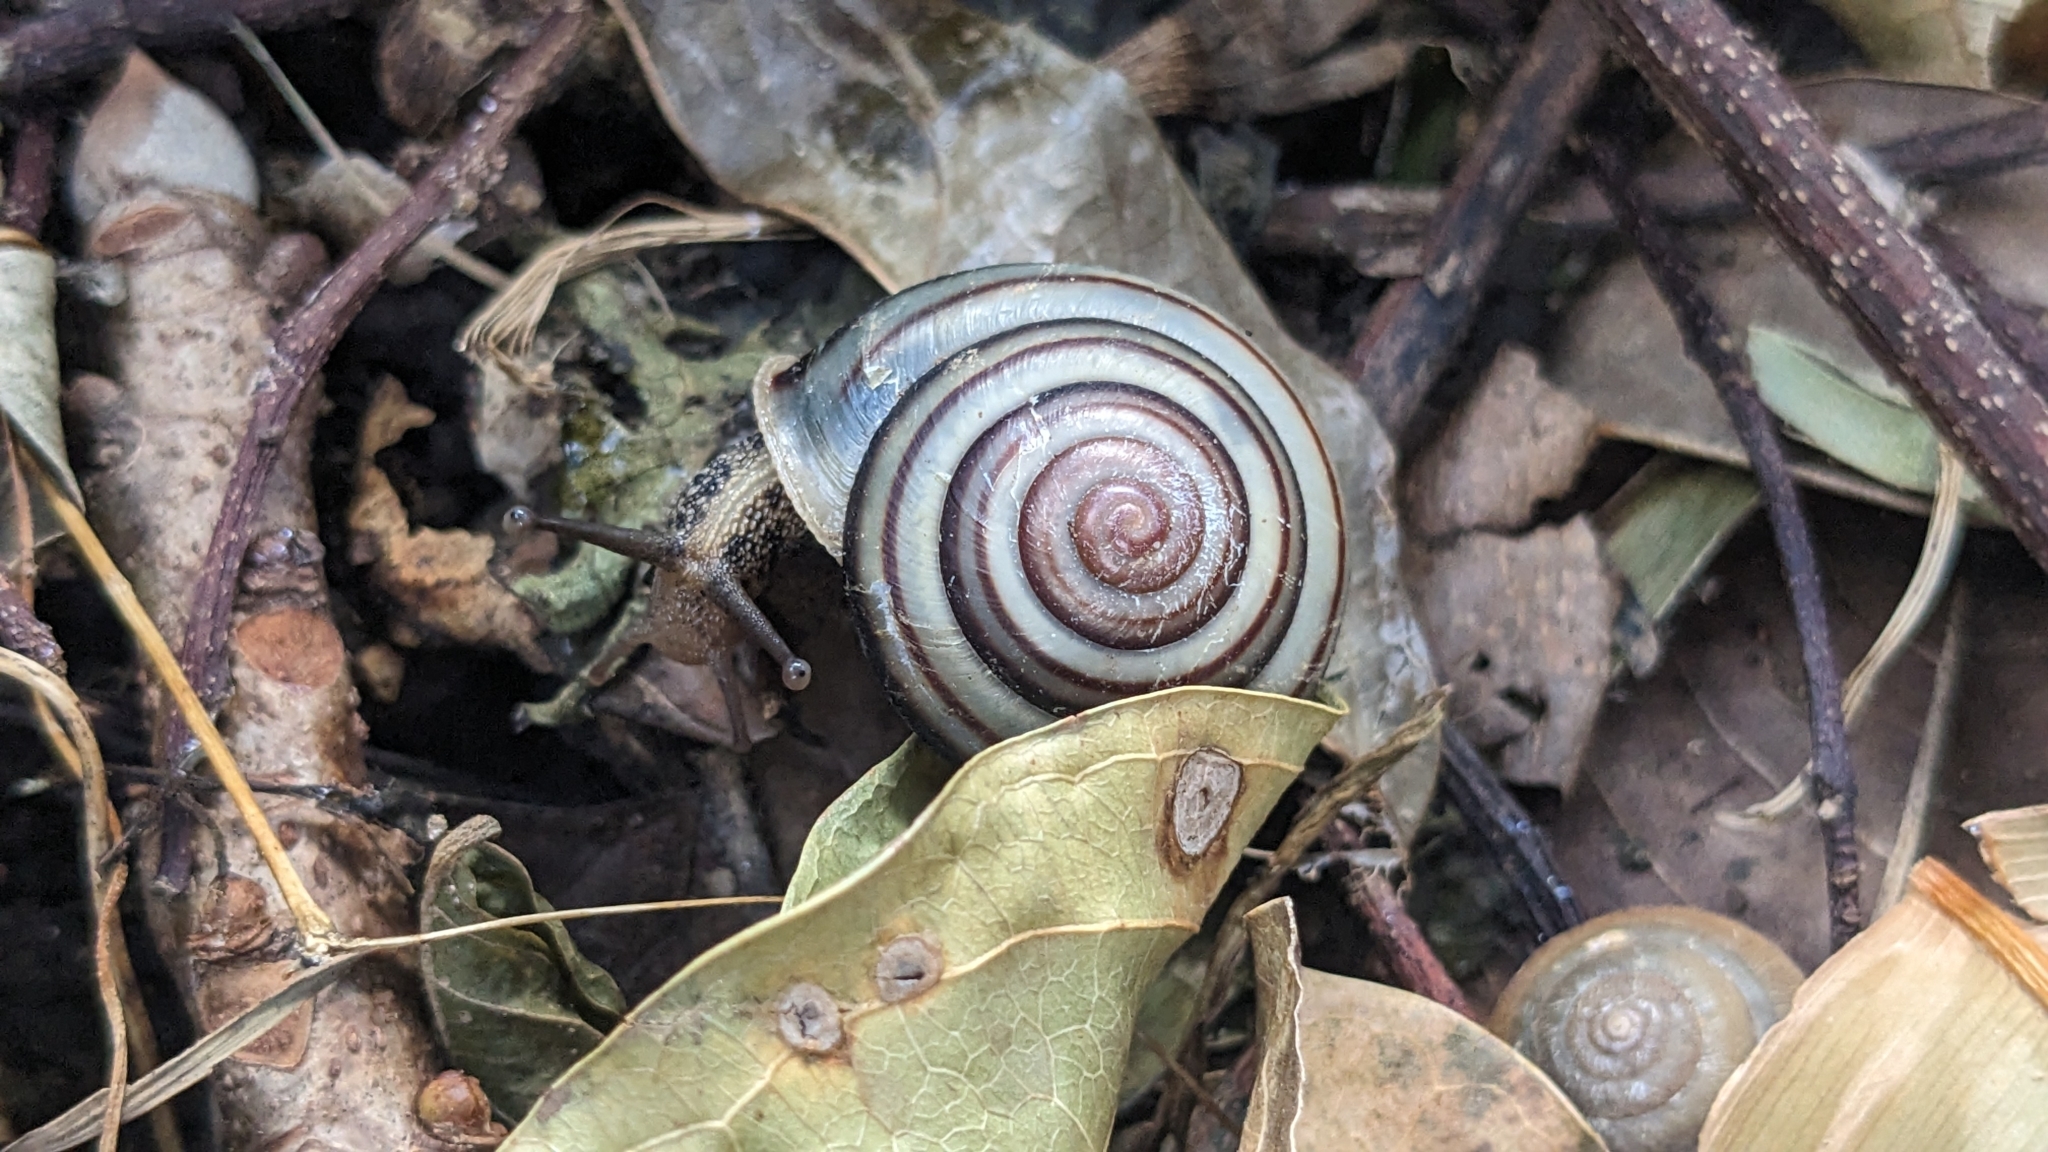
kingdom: Animalia
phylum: Mollusca
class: Gastropoda
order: Stylommatophora
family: Camaenidae
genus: Pancala
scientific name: Pancala batanica
